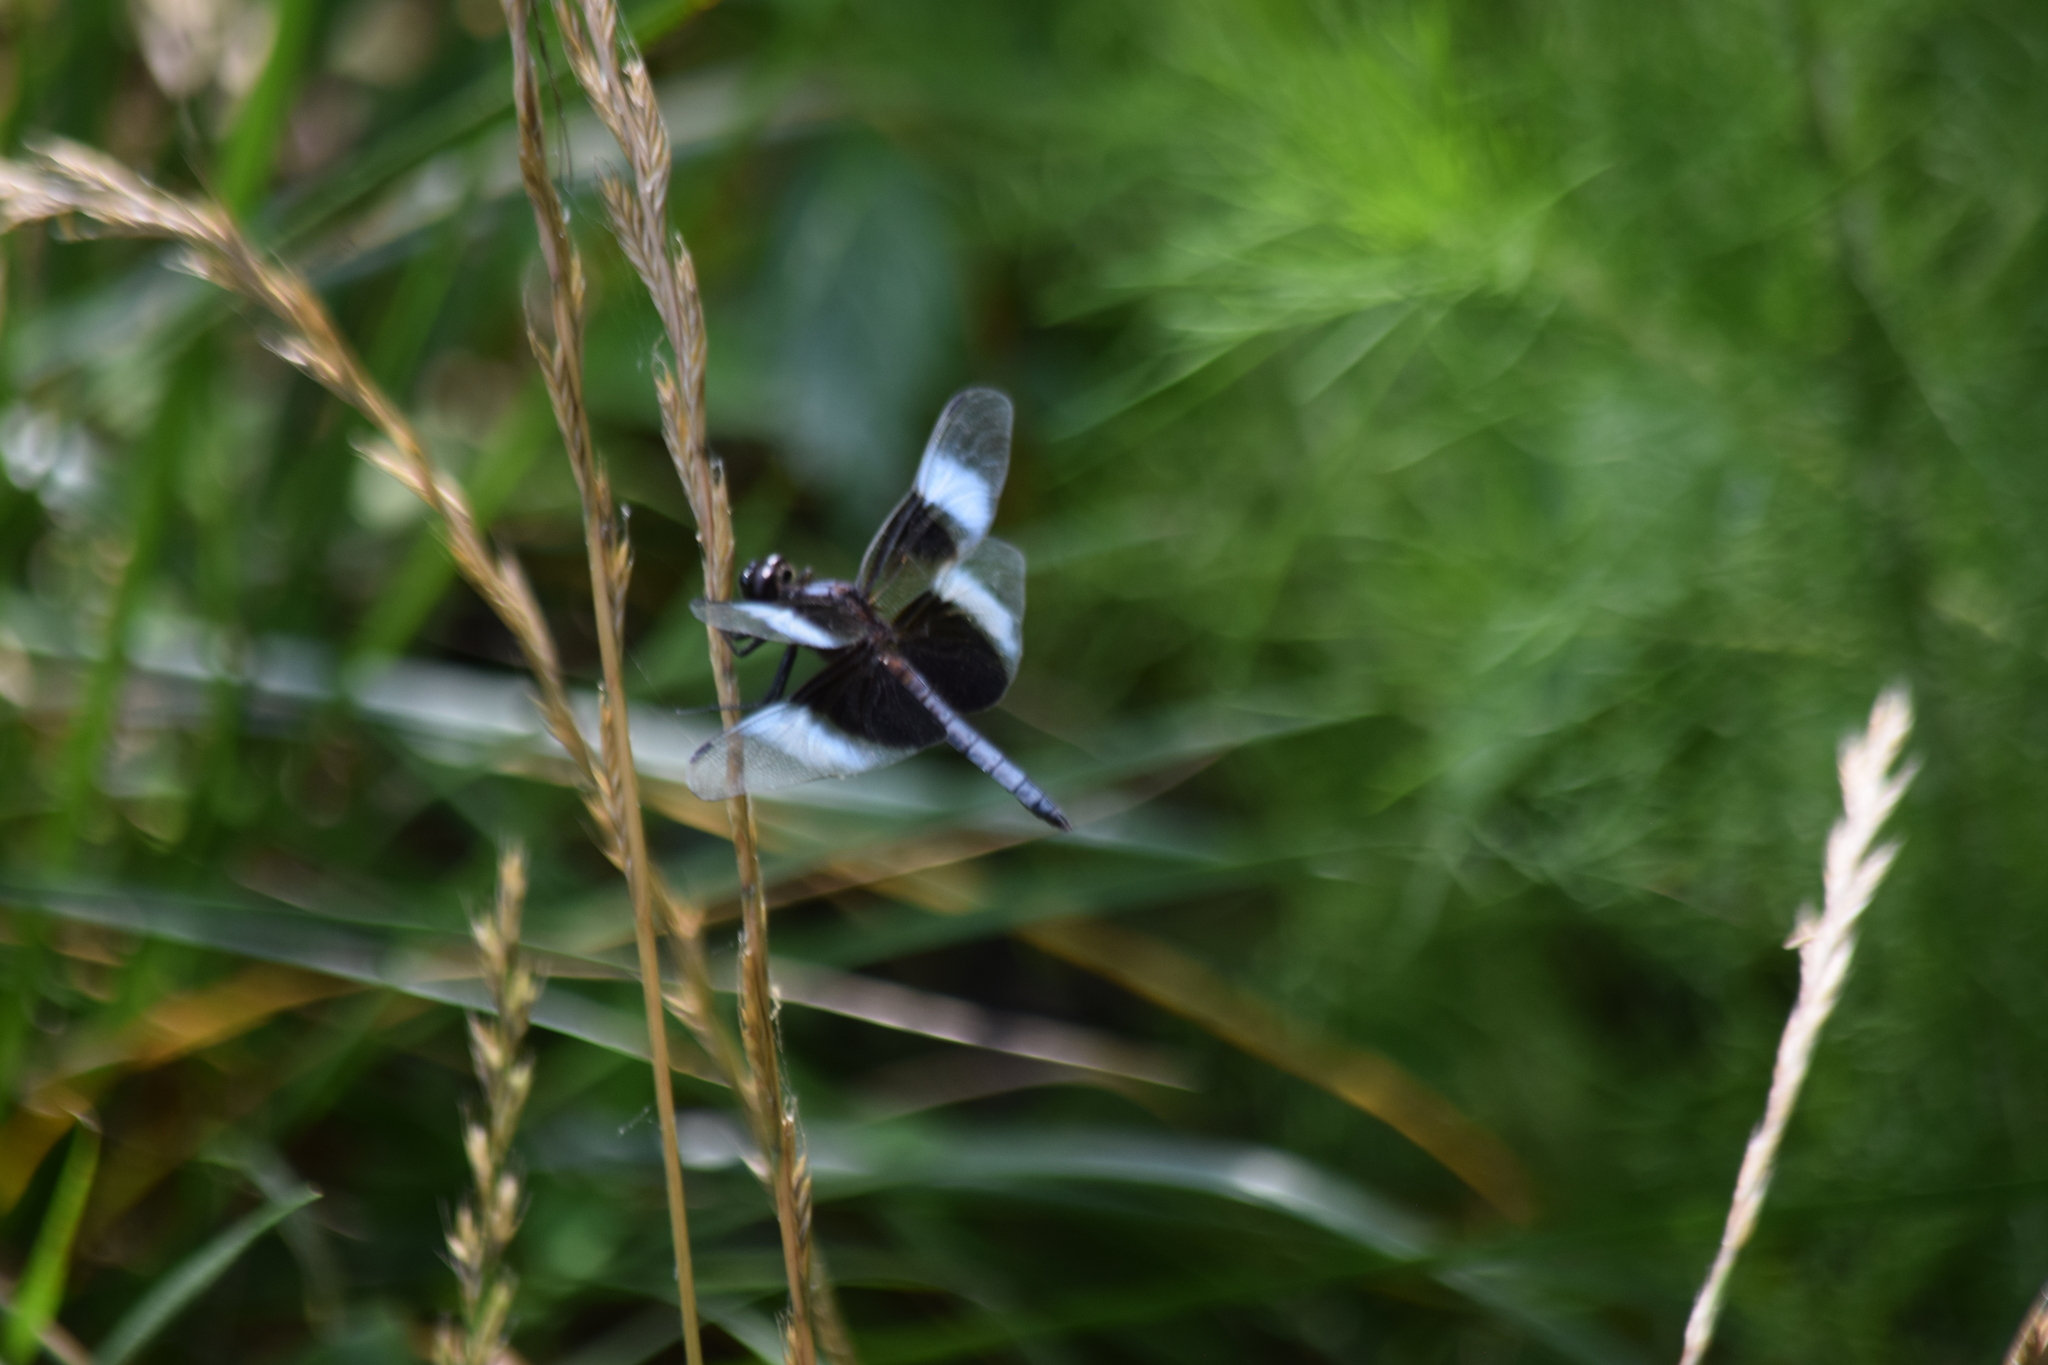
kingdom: Animalia
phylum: Arthropoda
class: Insecta
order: Odonata
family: Libellulidae
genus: Libellula
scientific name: Libellula luctuosa
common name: Widow skimmer
